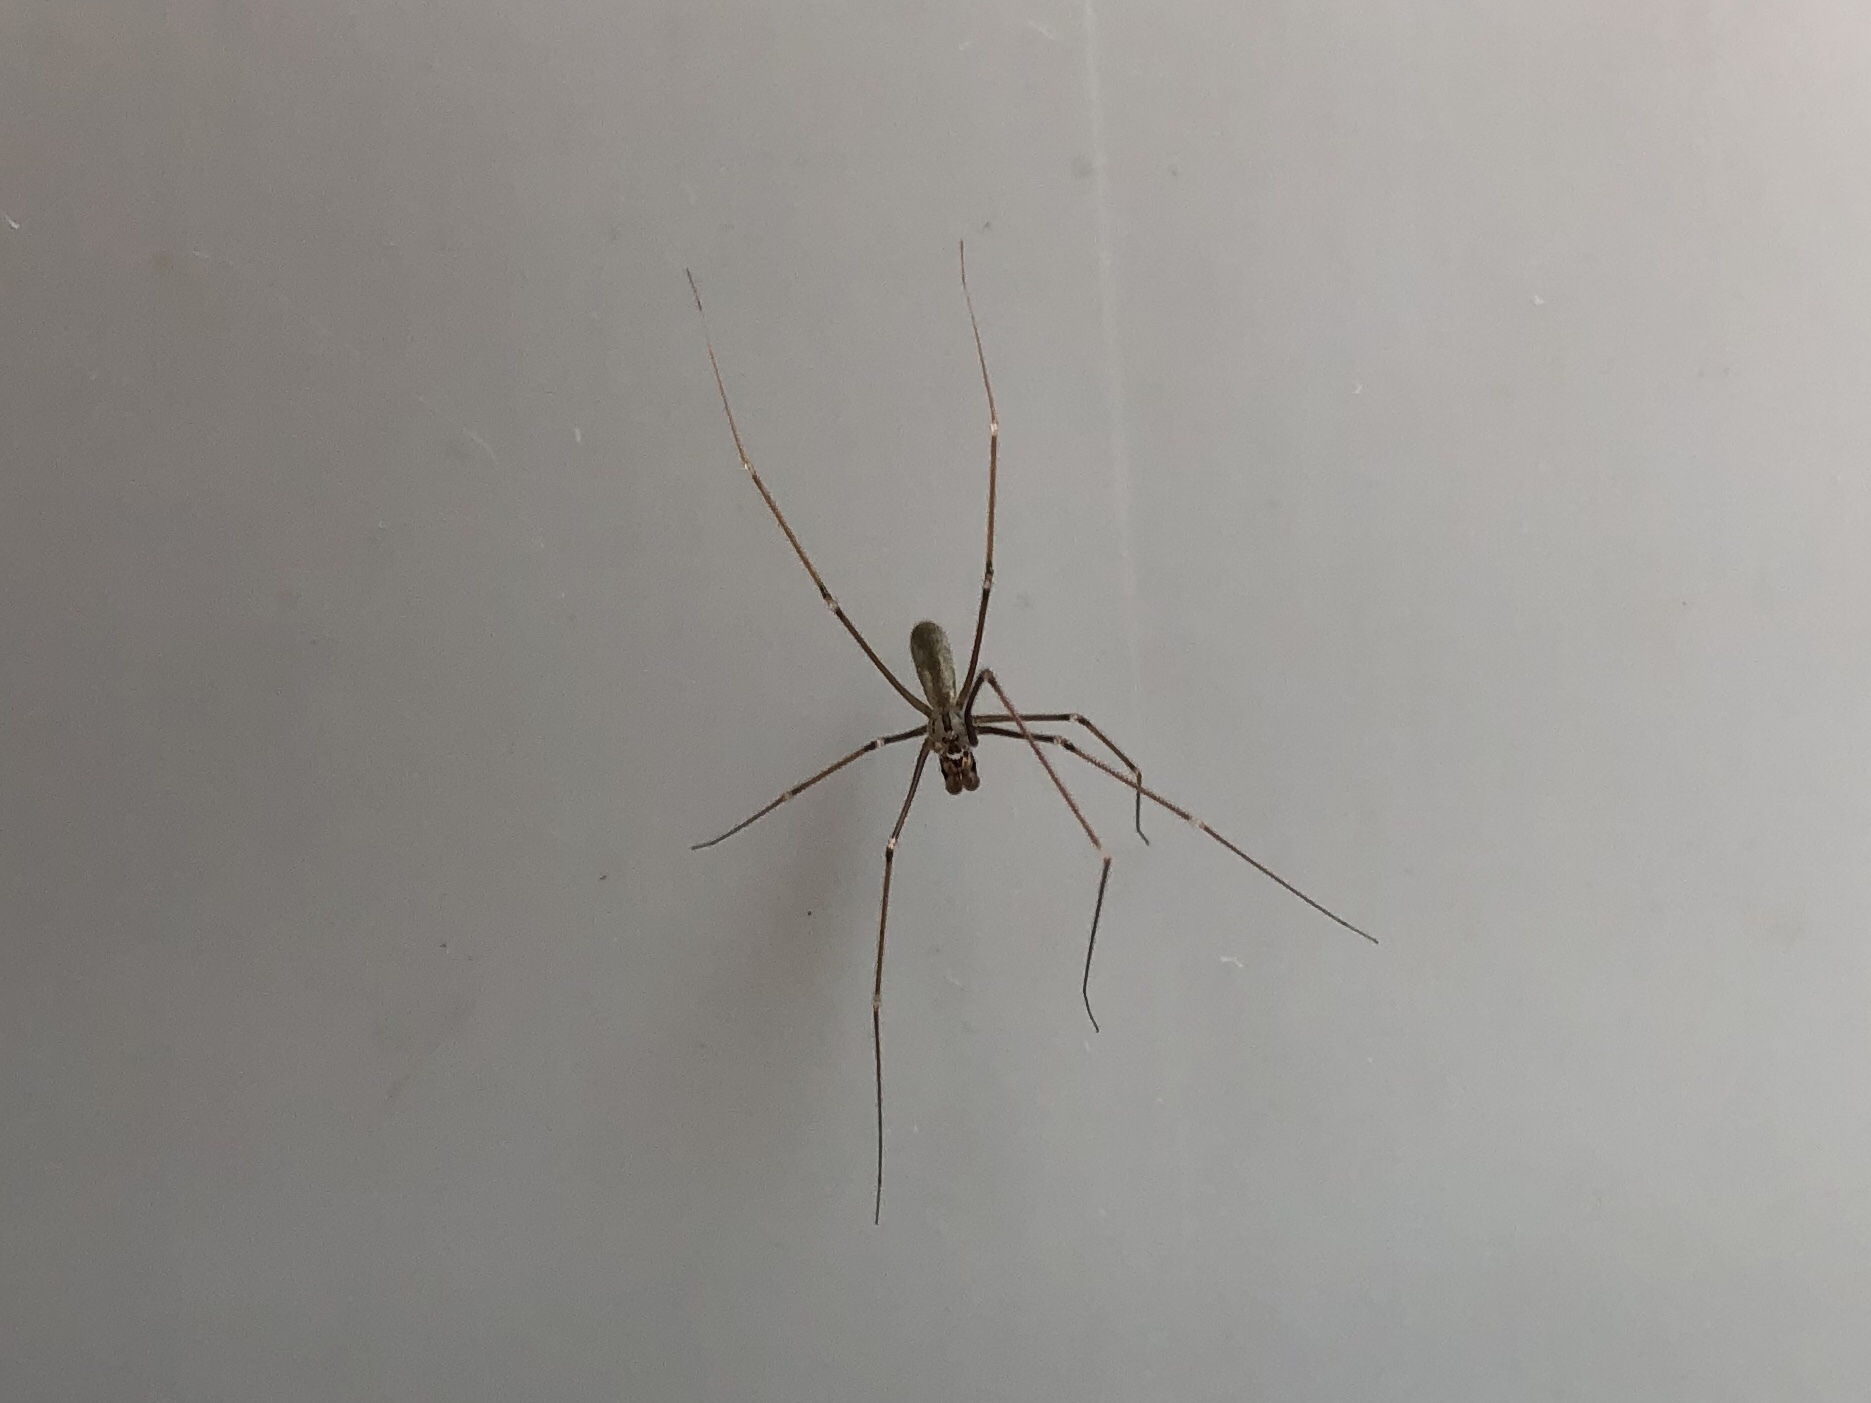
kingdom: Animalia
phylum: Arthropoda
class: Arachnida
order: Araneae
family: Pholcidae
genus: Pholcus
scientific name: Pholcus phalangioides
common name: Longbodied cellar spider
